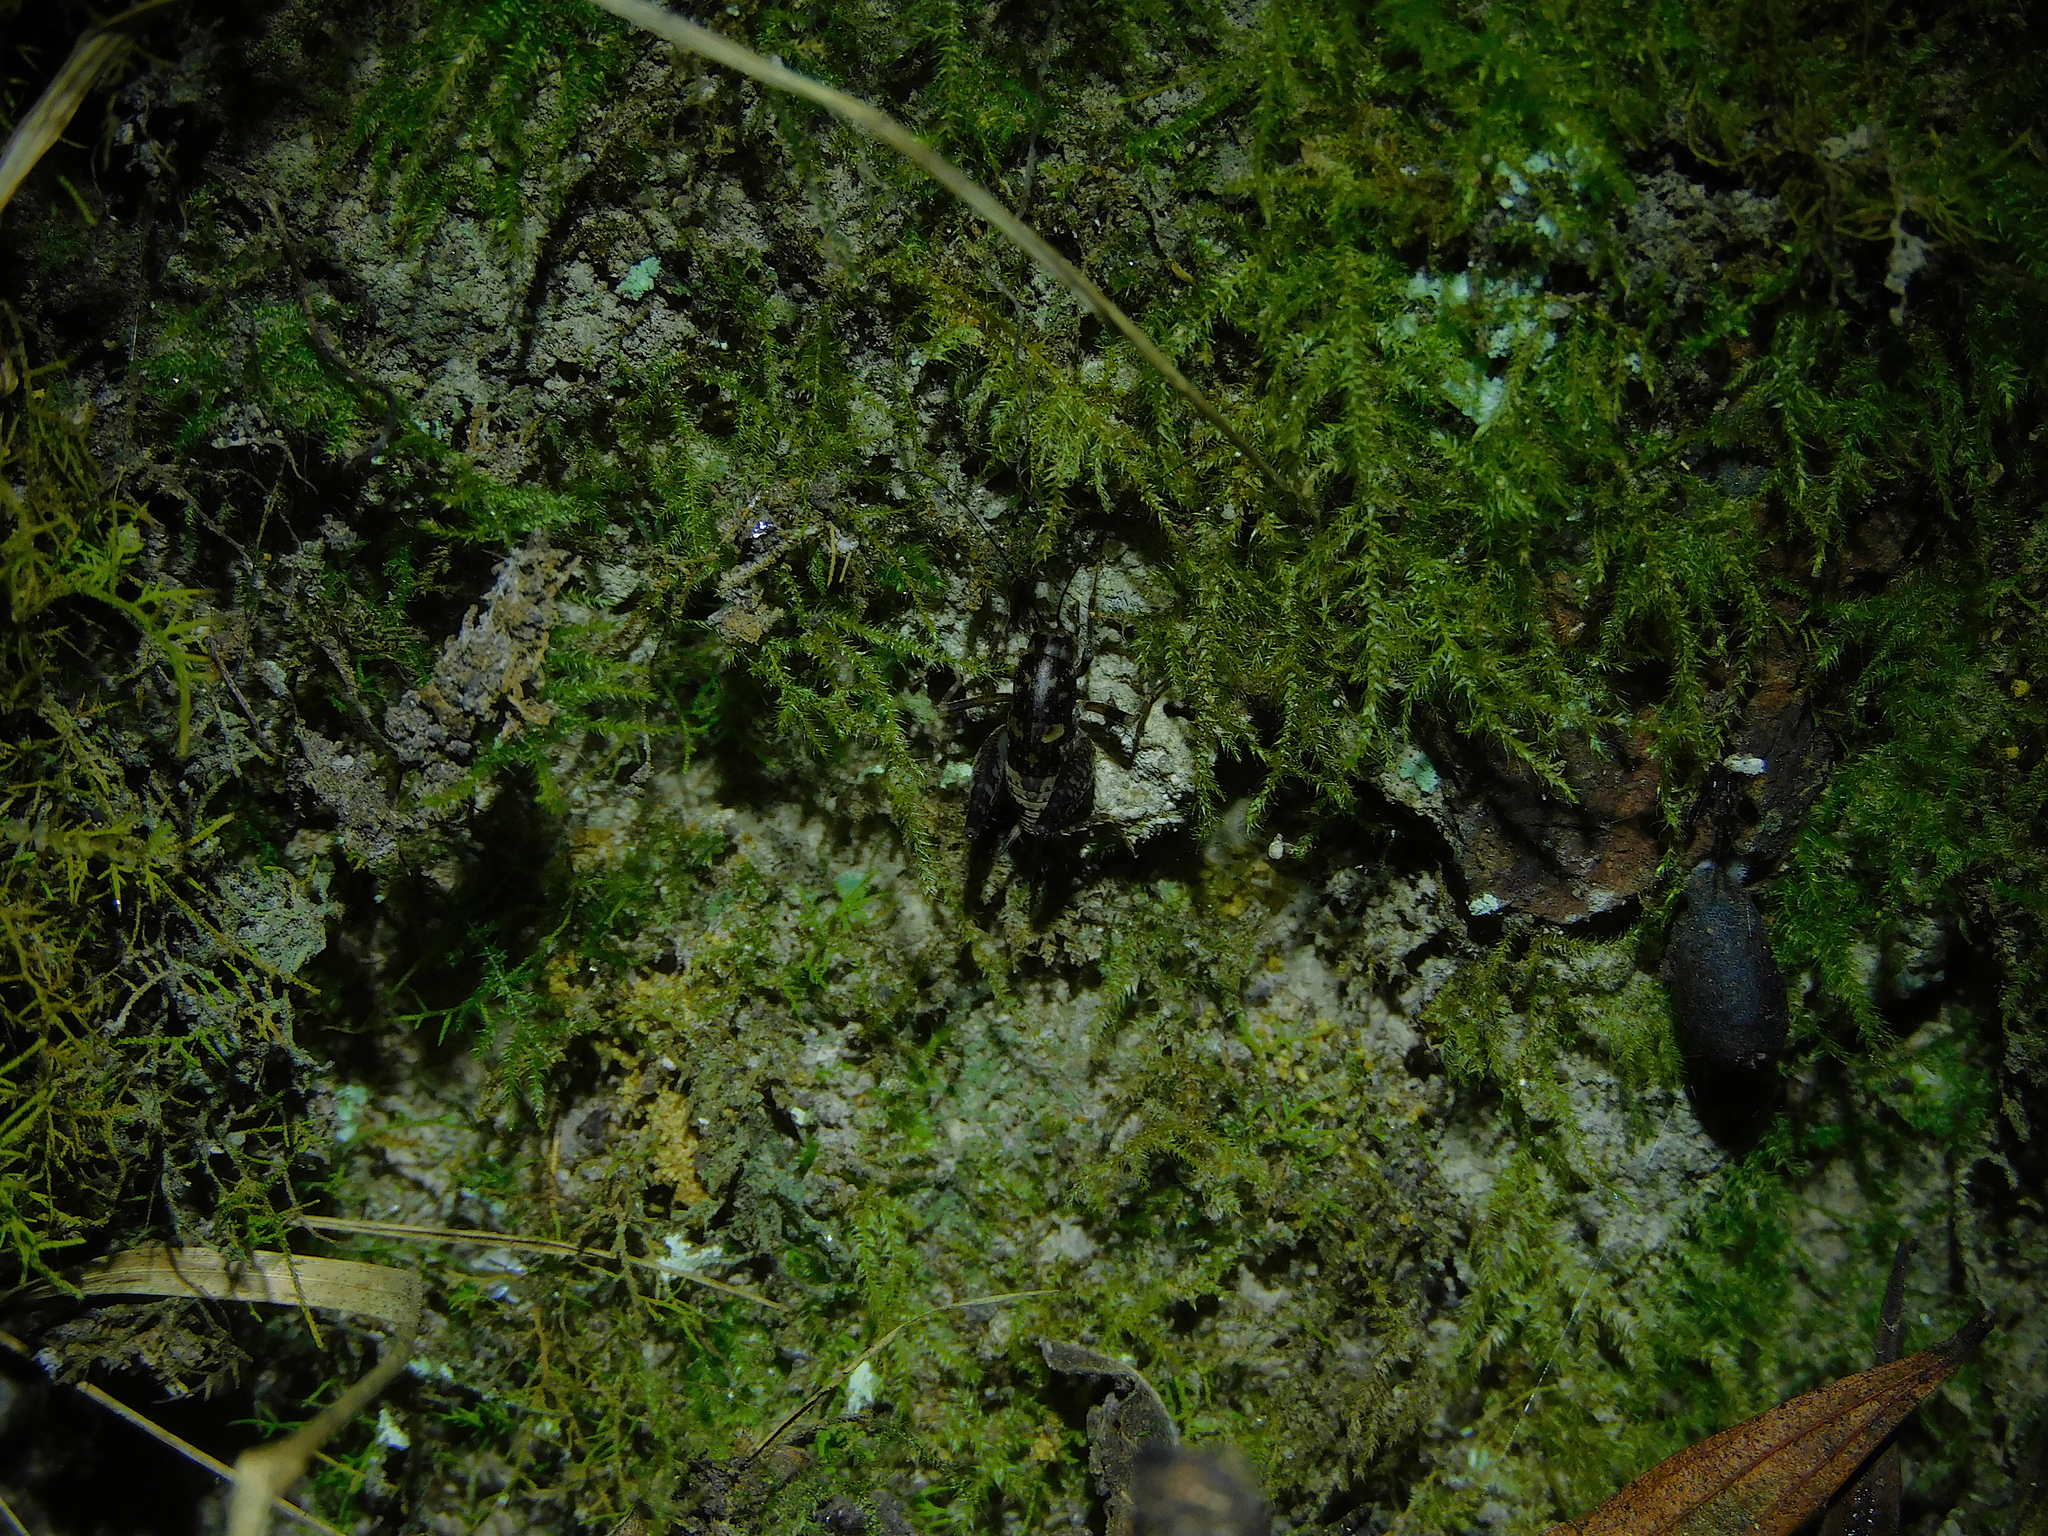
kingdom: Animalia
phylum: Arthropoda
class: Insecta
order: Orthoptera
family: Rhaphidophoridae
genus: Parvotettix
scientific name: Parvotettix domesticus
